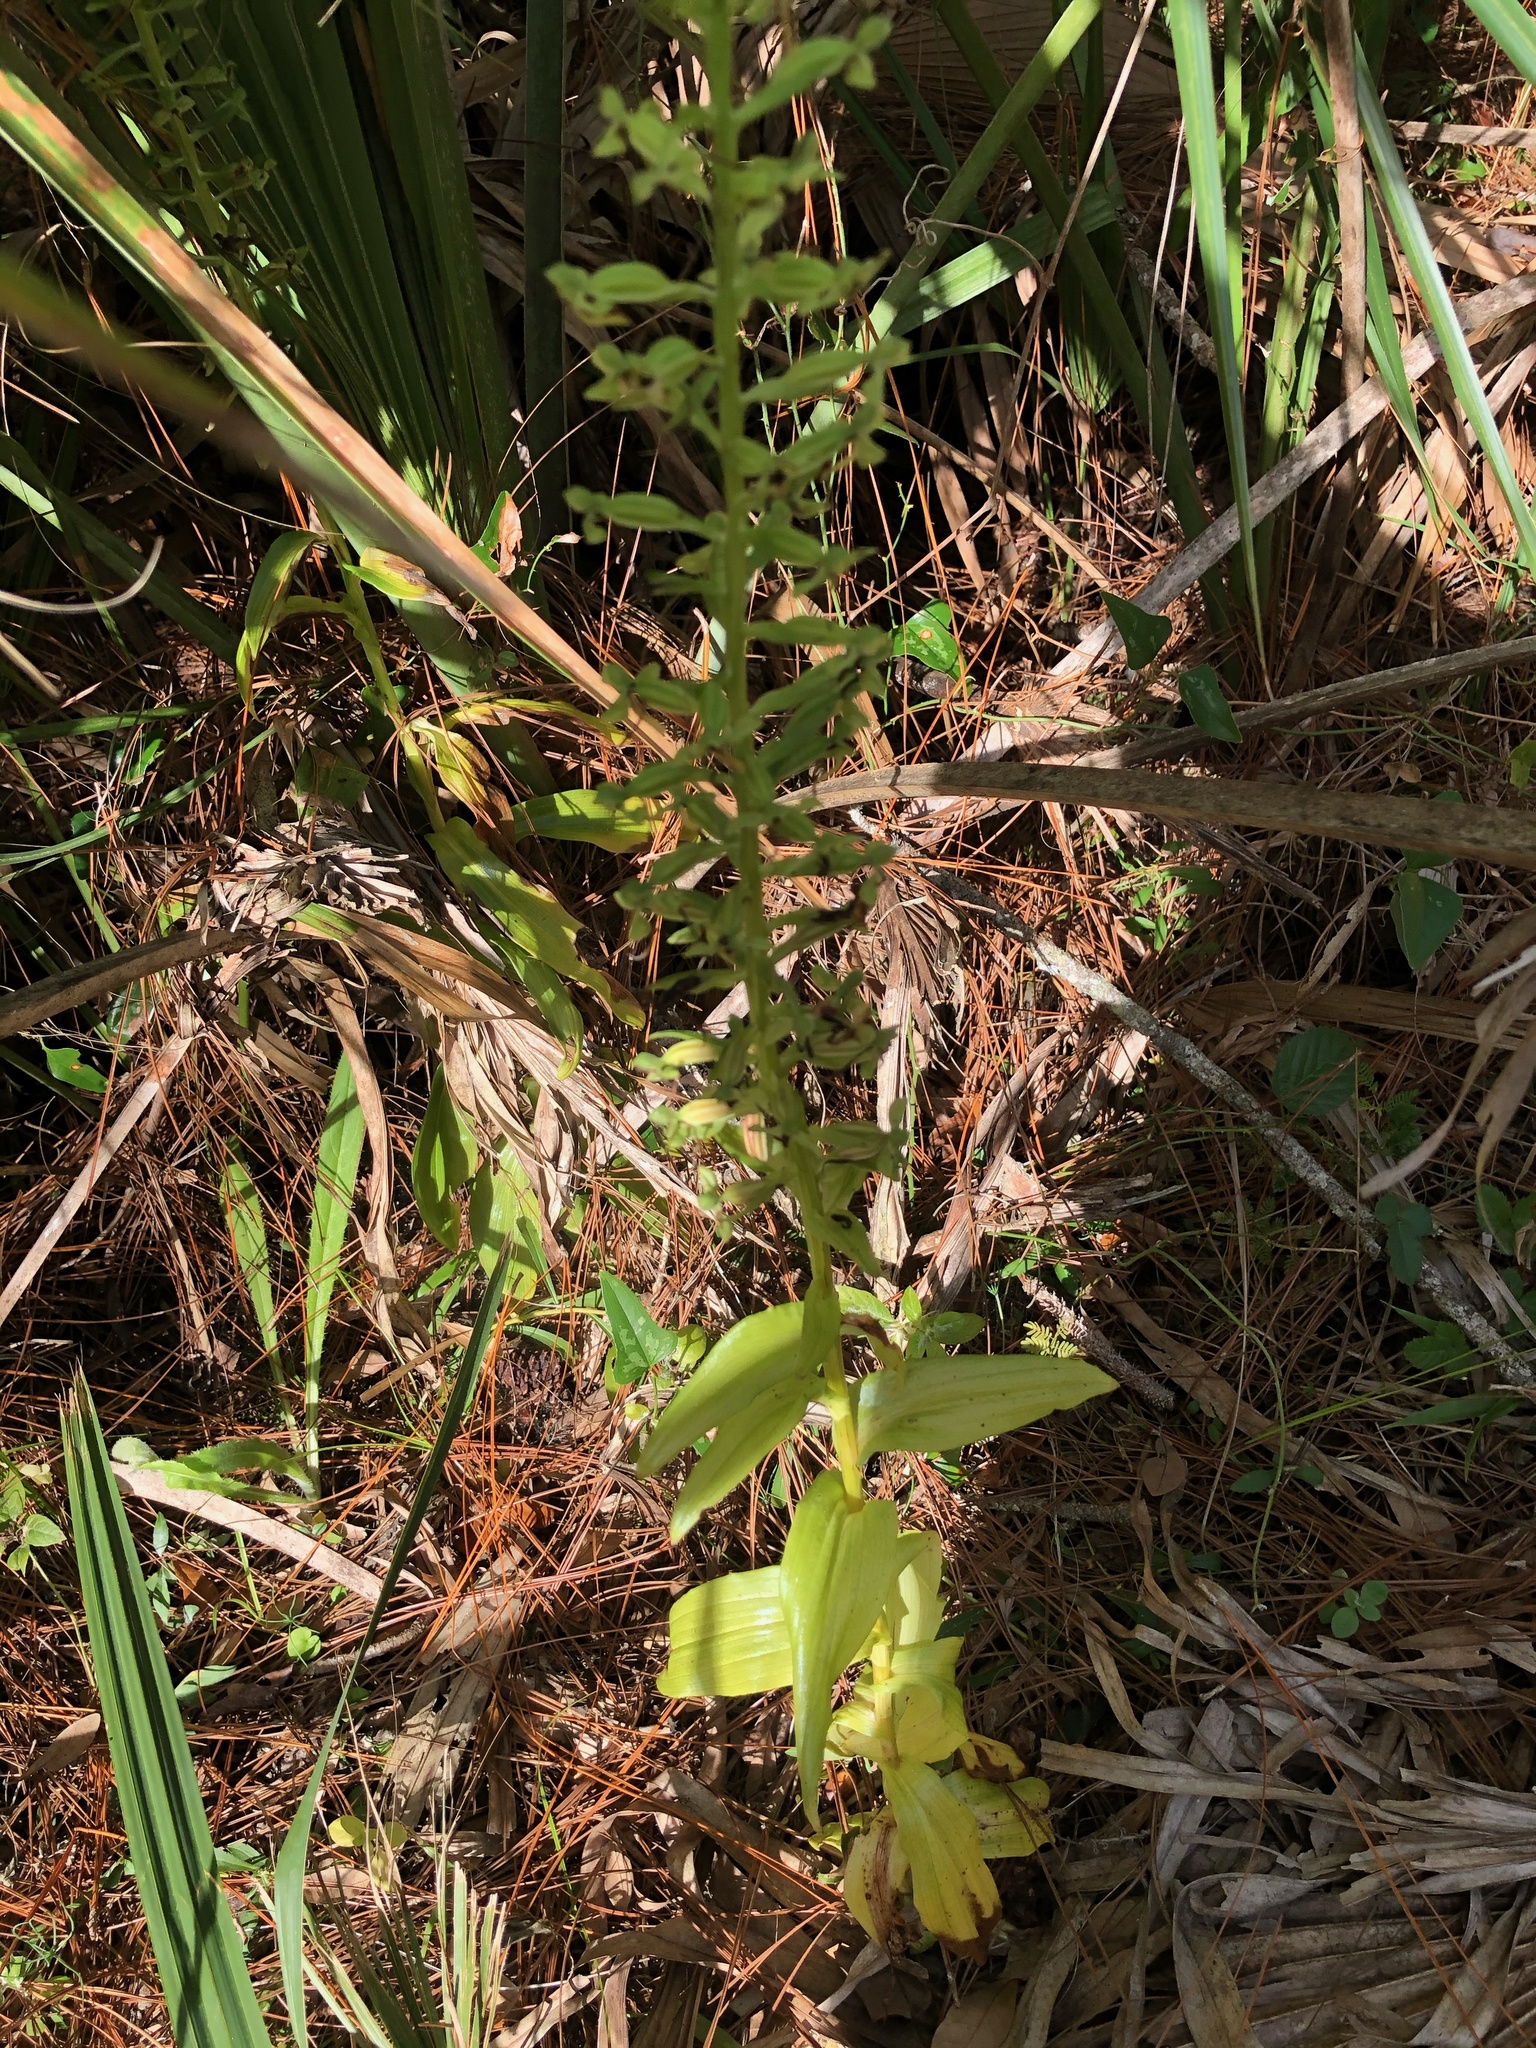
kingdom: Plantae
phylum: Tracheophyta
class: Liliopsida
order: Asparagales
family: Orchidaceae
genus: Habenaria
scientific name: Habenaria floribunda
